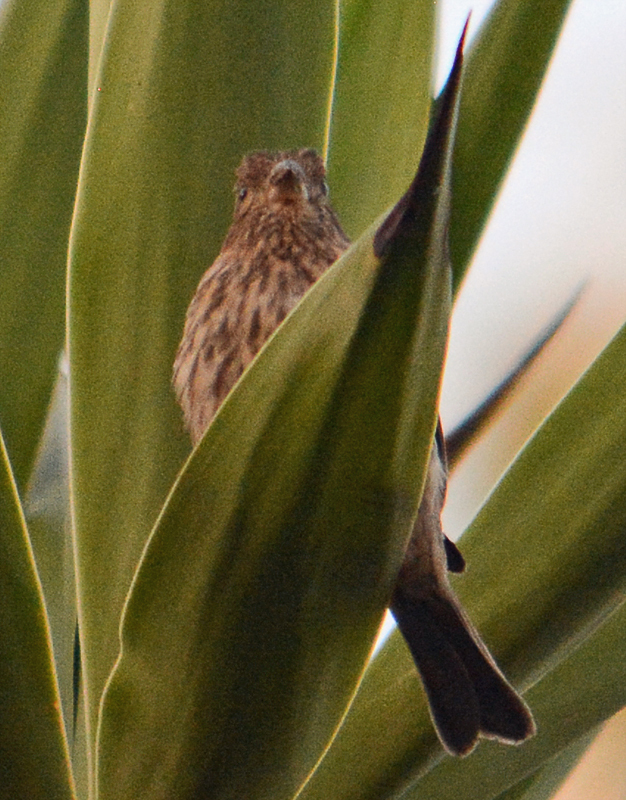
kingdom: Animalia
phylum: Chordata
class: Aves
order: Passeriformes
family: Fringillidae
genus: Haemorhous
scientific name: Haemorhous mexicanus
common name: House finch
